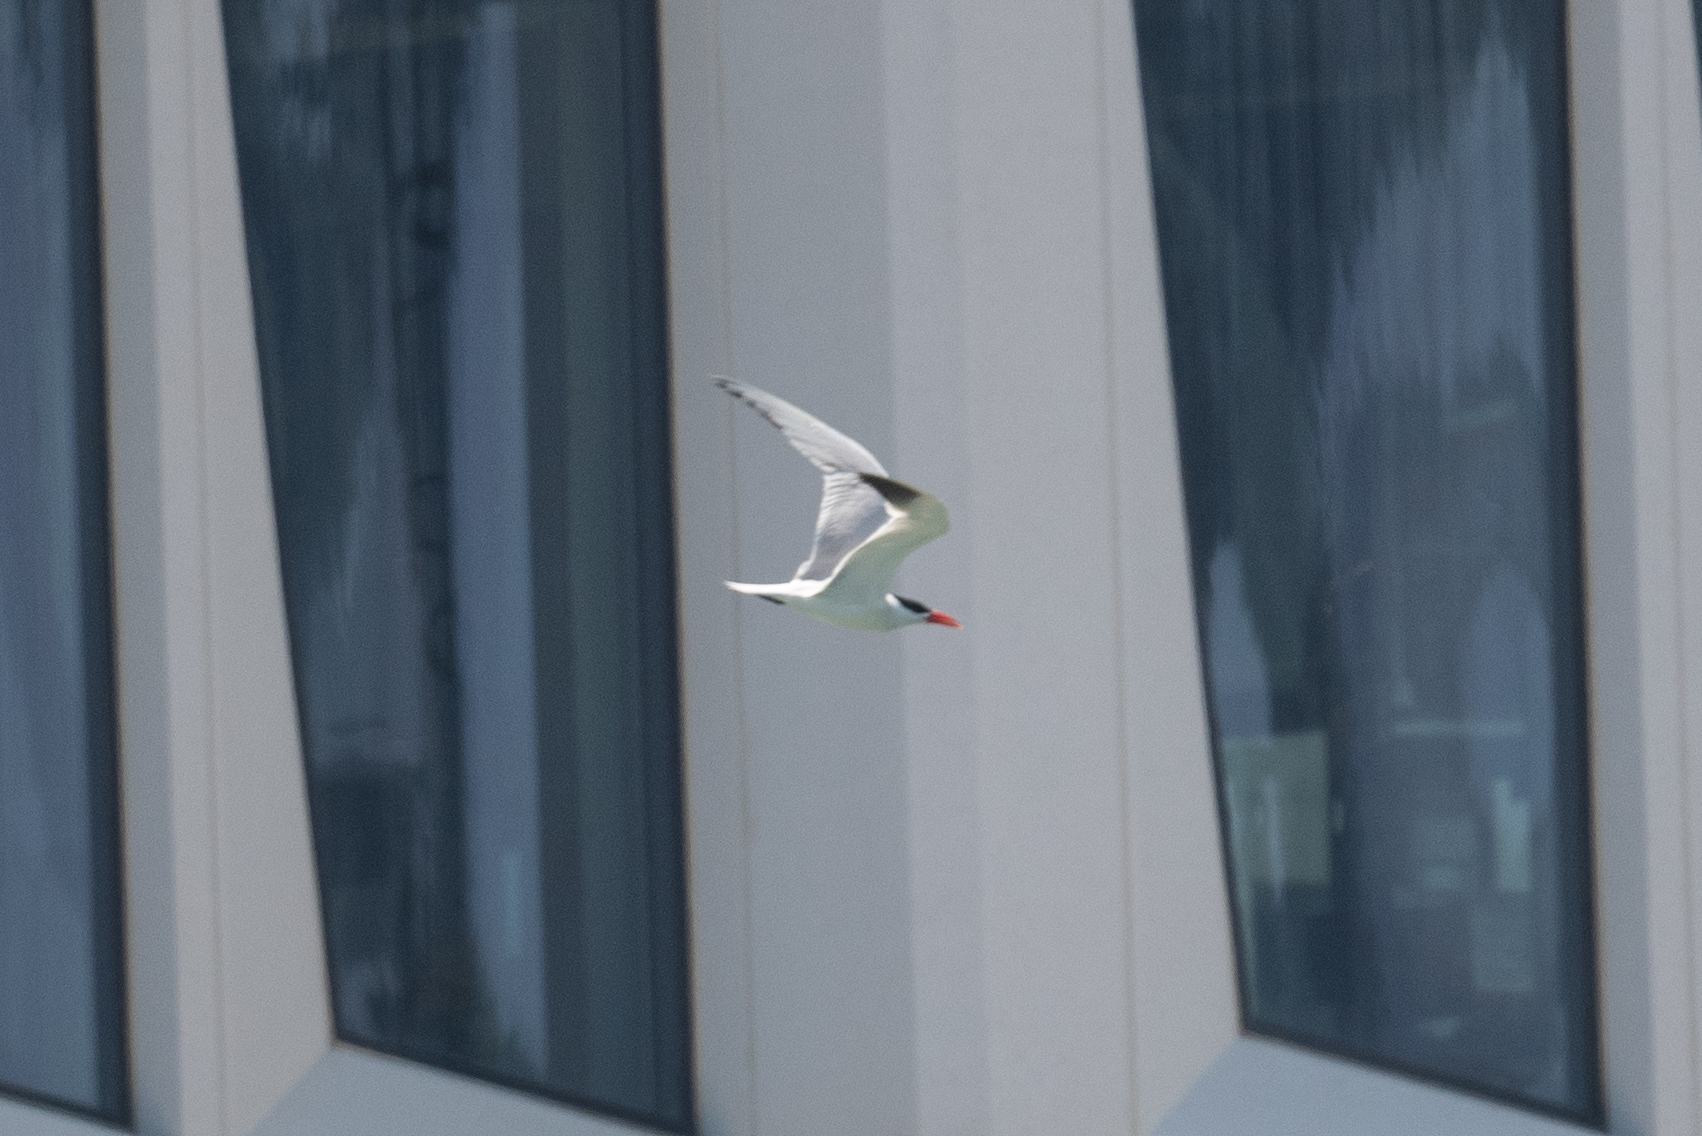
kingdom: Animalia
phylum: Chordata
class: Aves
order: Charadriiformes
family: Laridae
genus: Hydroprogne
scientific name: Hydroprogne caspia
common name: Caspian tern
